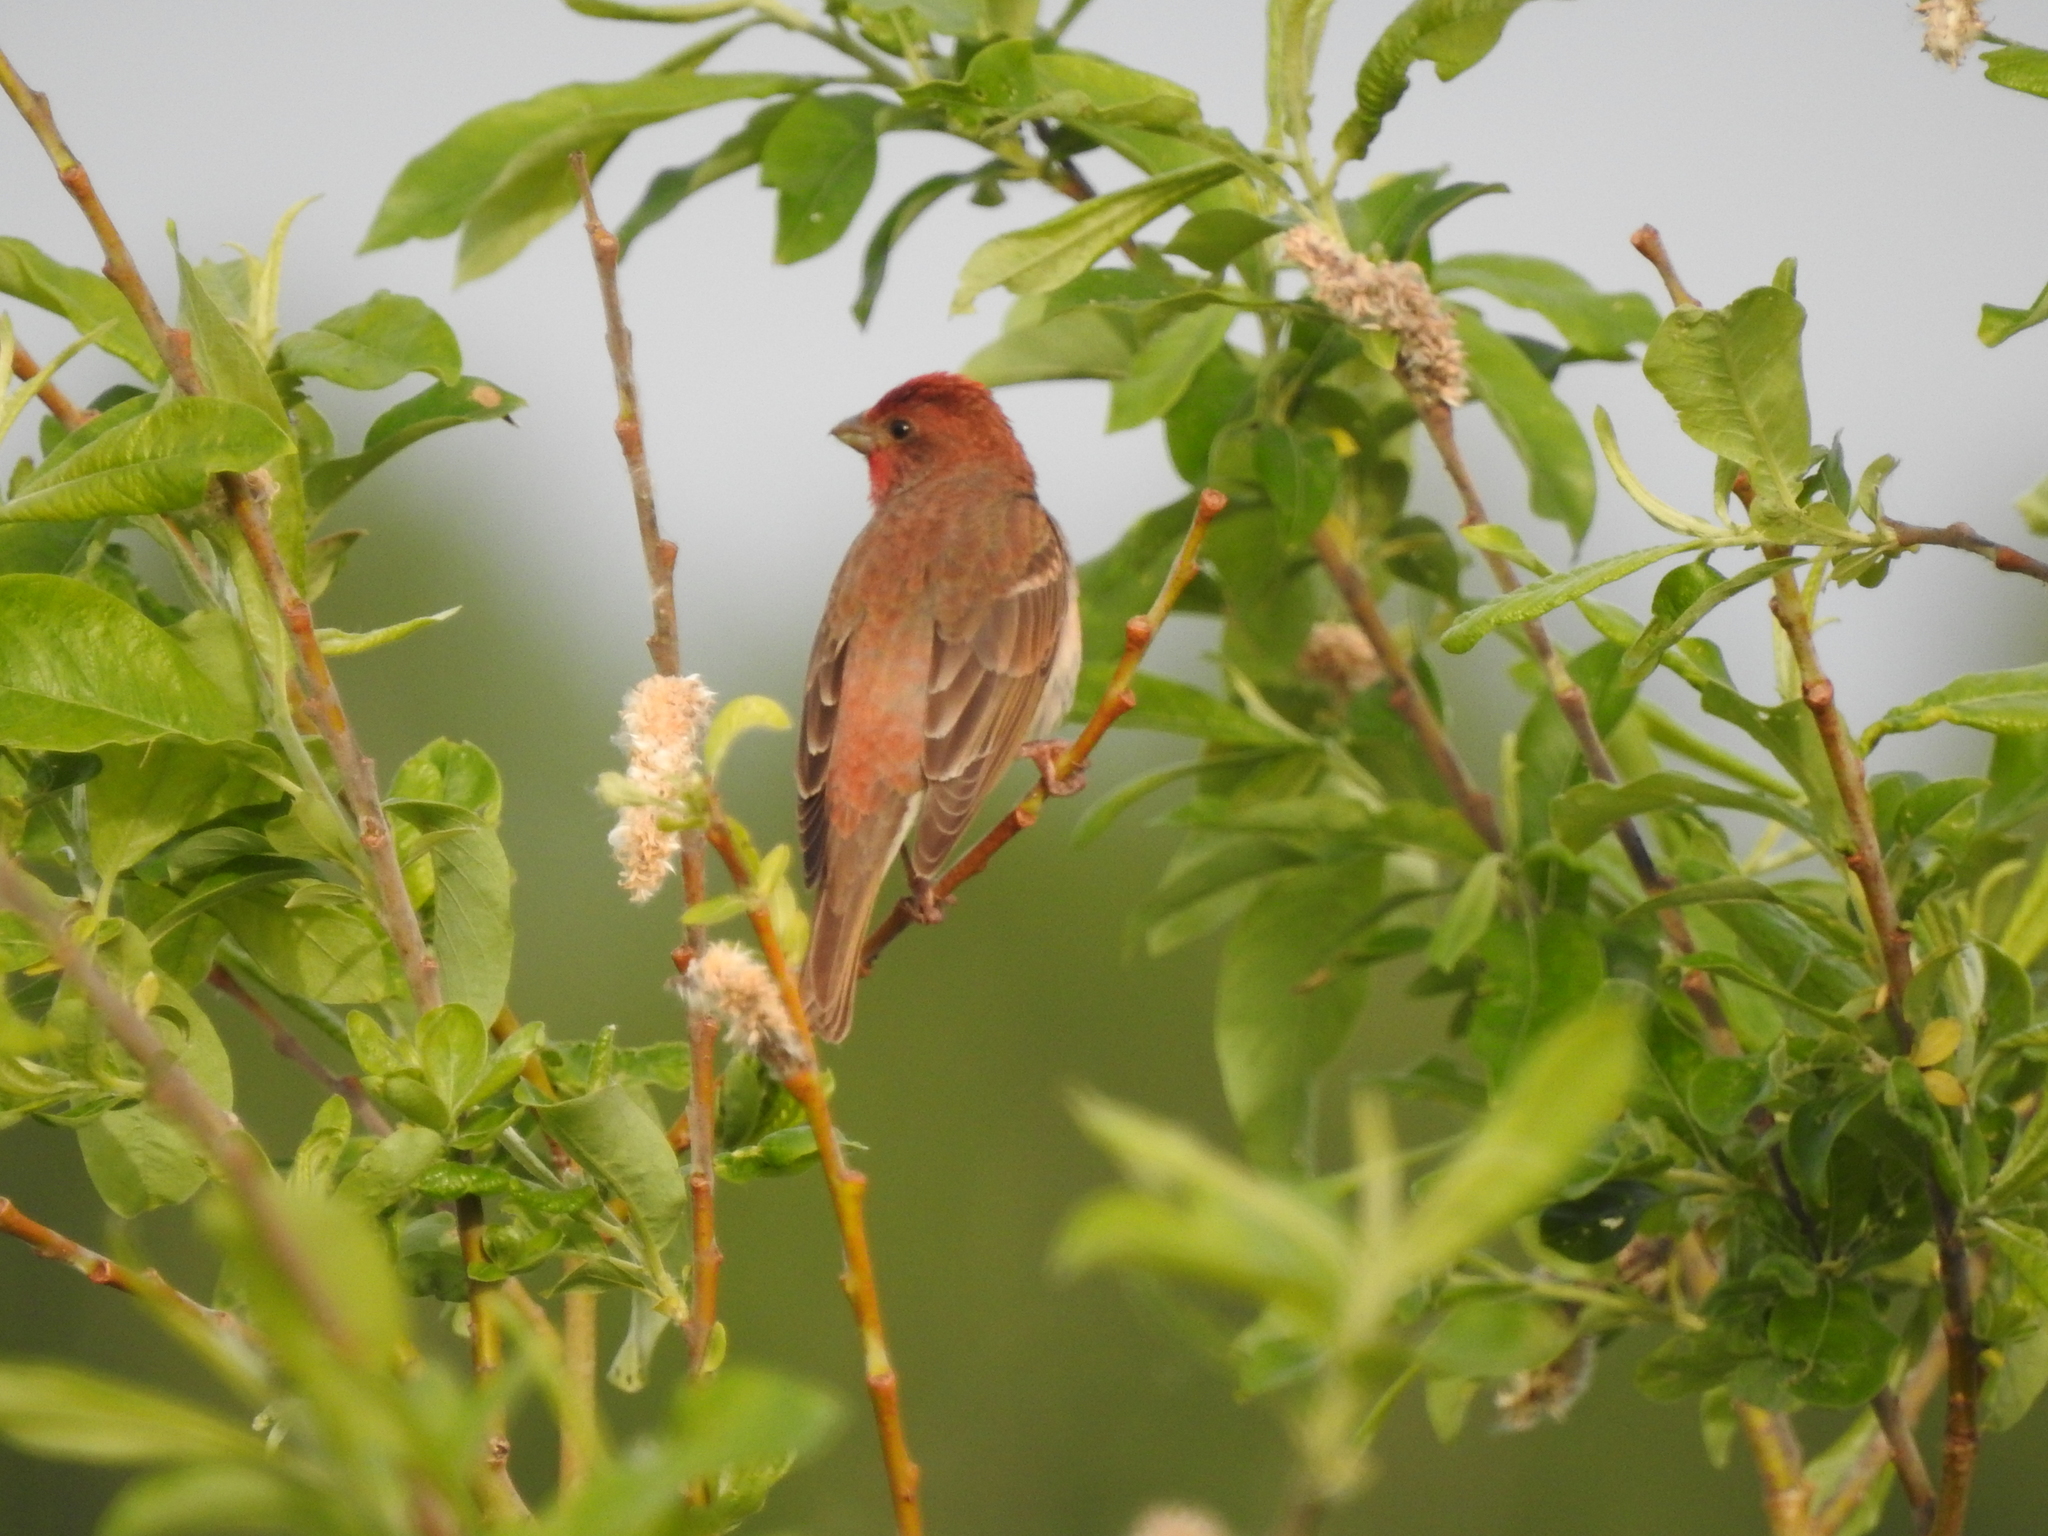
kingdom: Animalia
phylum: Chordata
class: Aves
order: Passeriformes
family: Fringillidae
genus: Carpodacus
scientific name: Carpodacus erythrinus
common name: Common rosefinch
